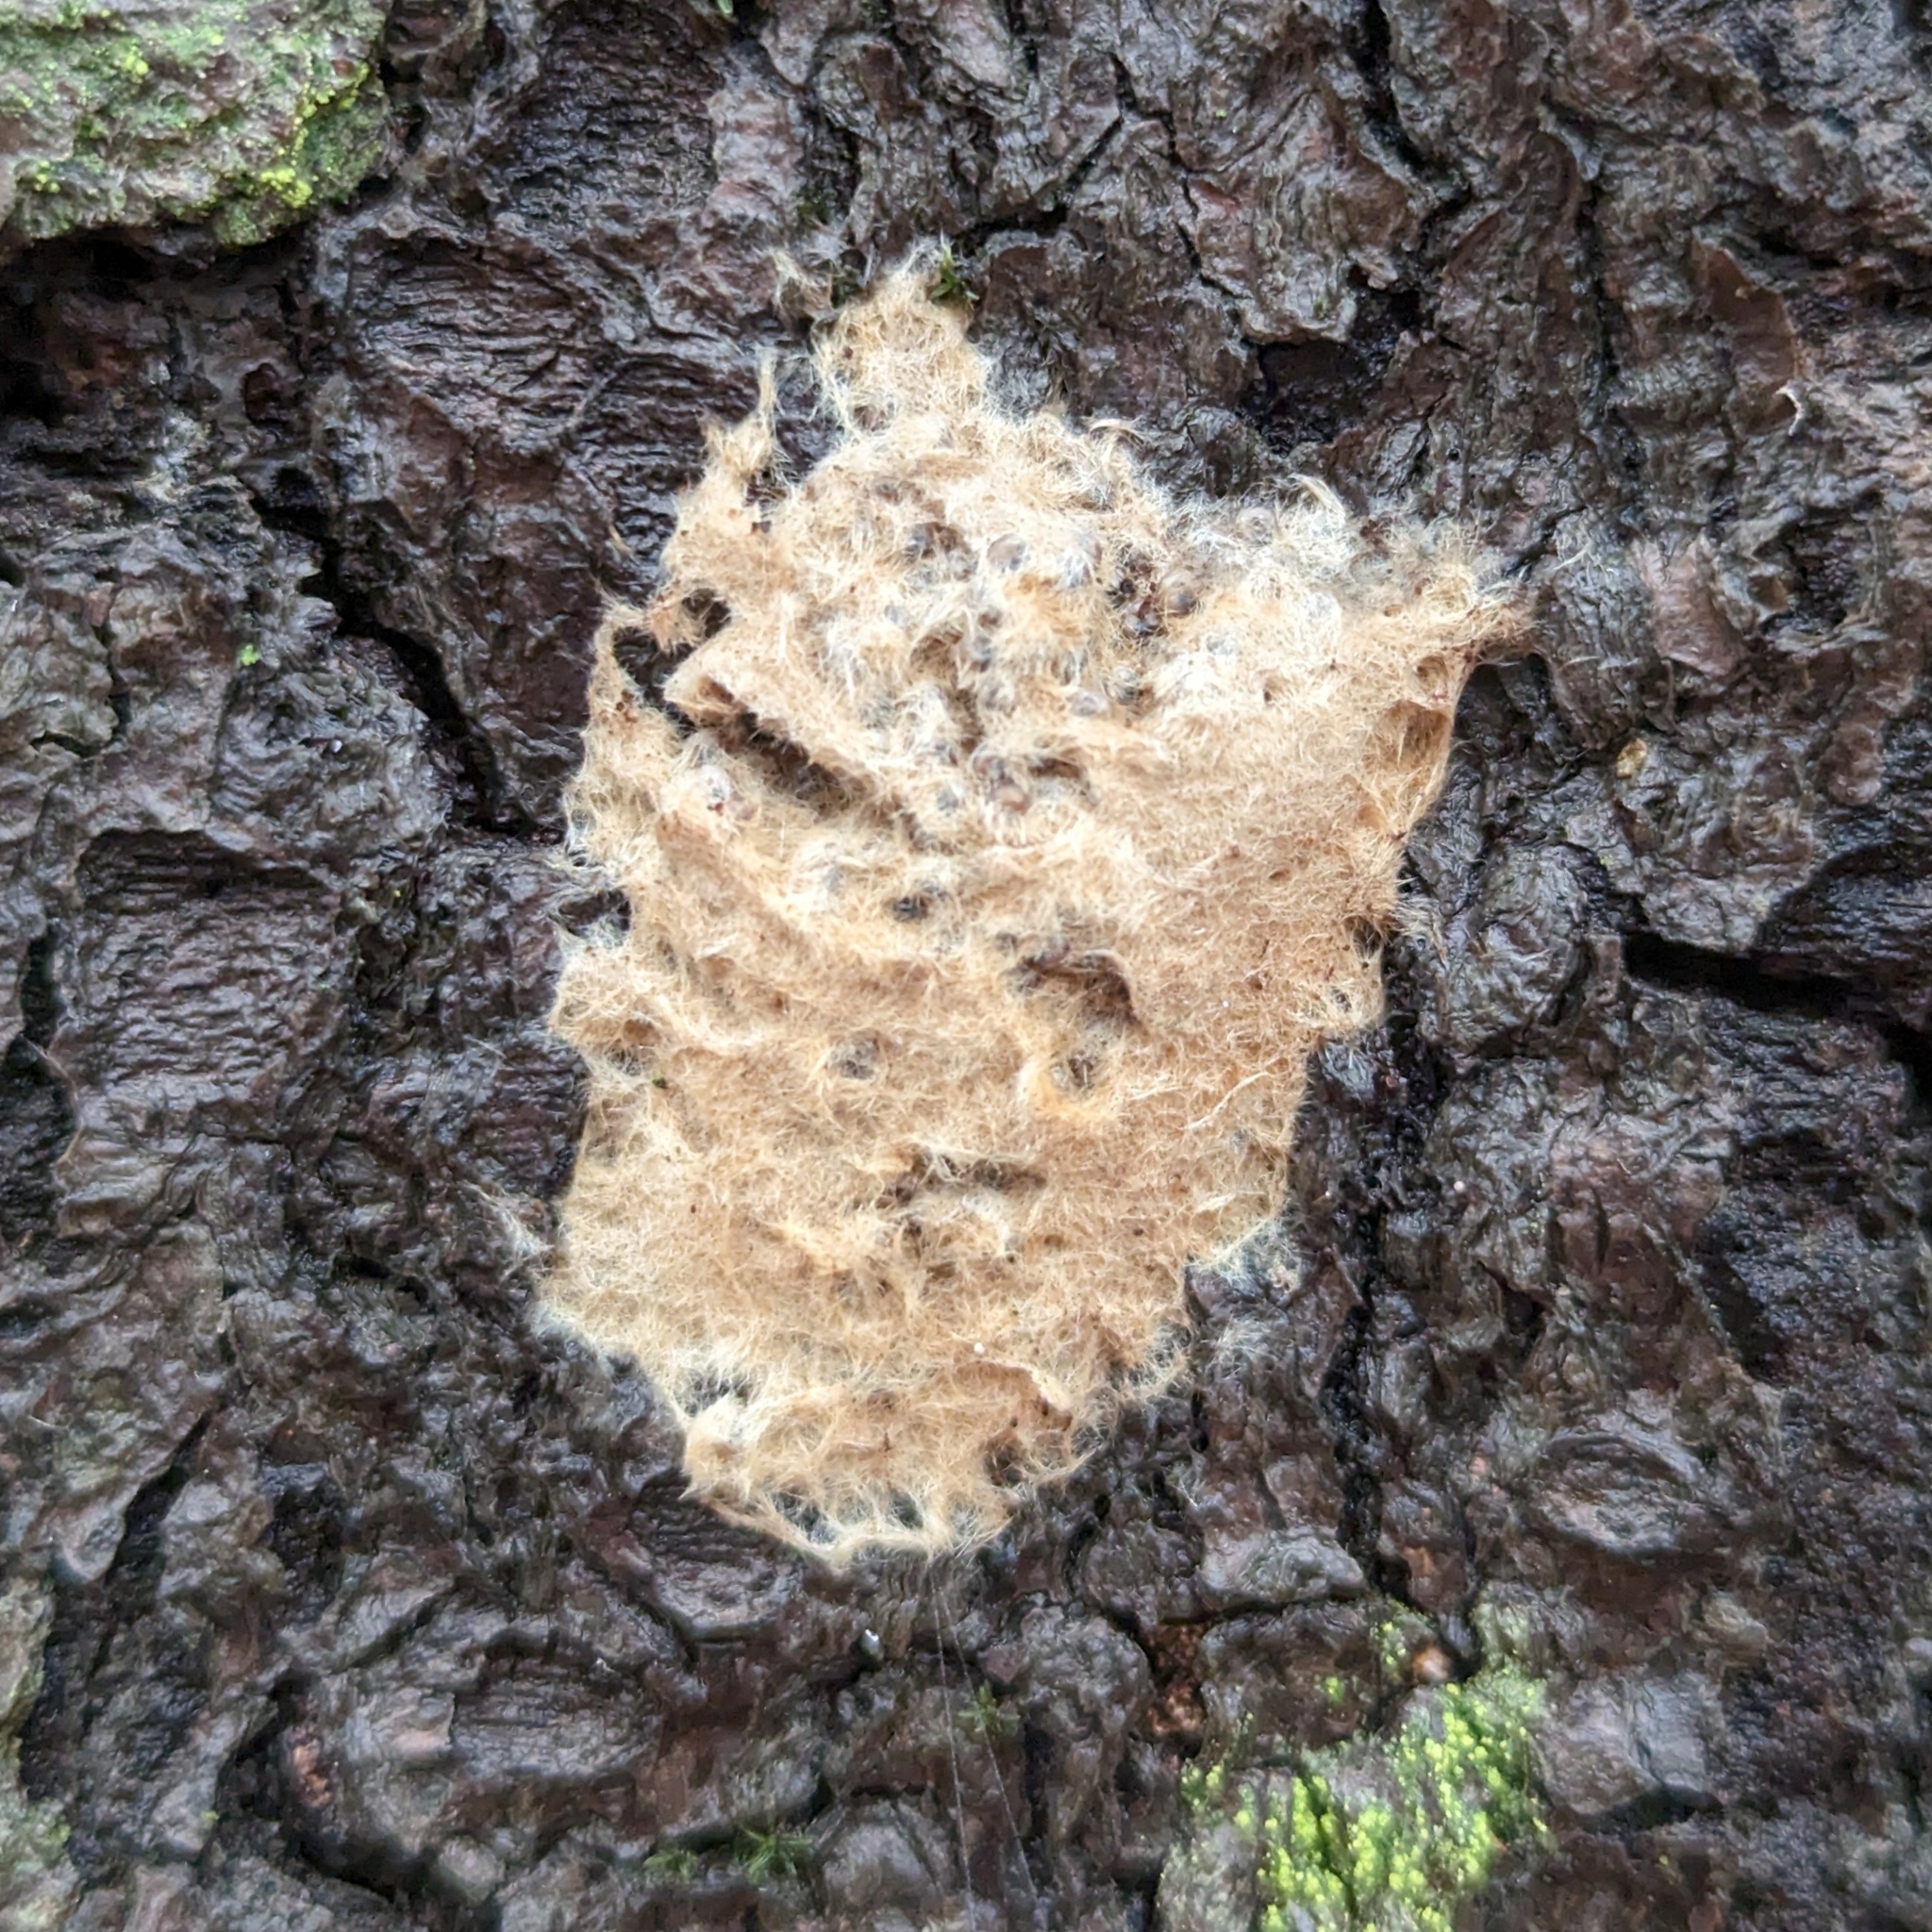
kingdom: Animalia
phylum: Arthropoda
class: Insecta
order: Lepidoptera
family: Erebidae
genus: Lymantria
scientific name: Lymantria dispar
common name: Gypsy moth
